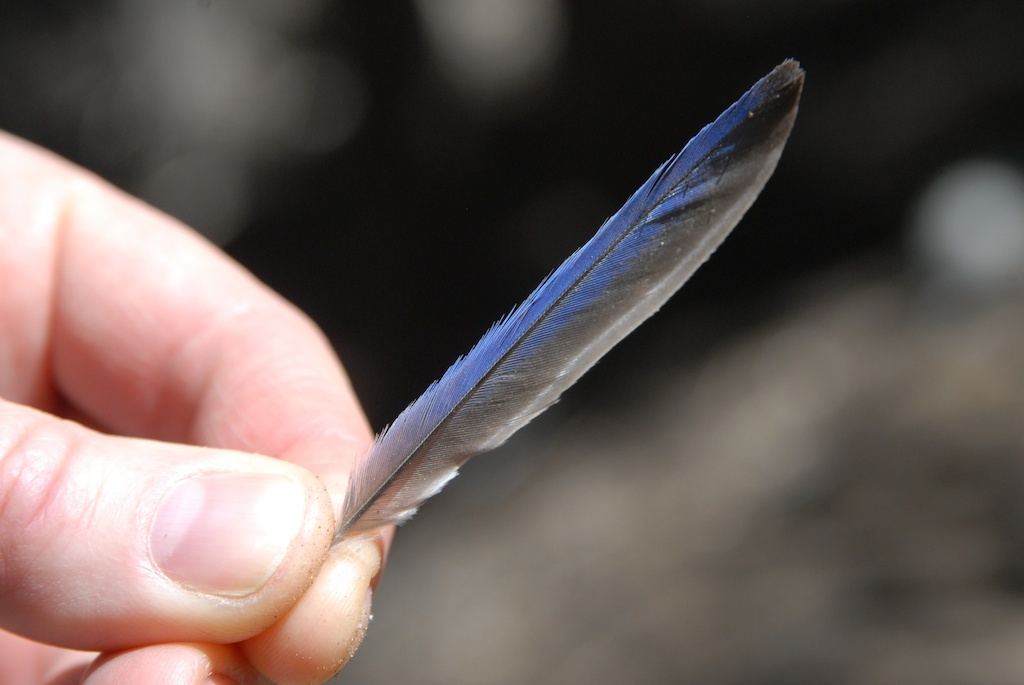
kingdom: Animalia
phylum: Chordata
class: Aves
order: Passeriformes
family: Turdidae
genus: Sialia
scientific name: Sialia mexicana
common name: Western bluebird
